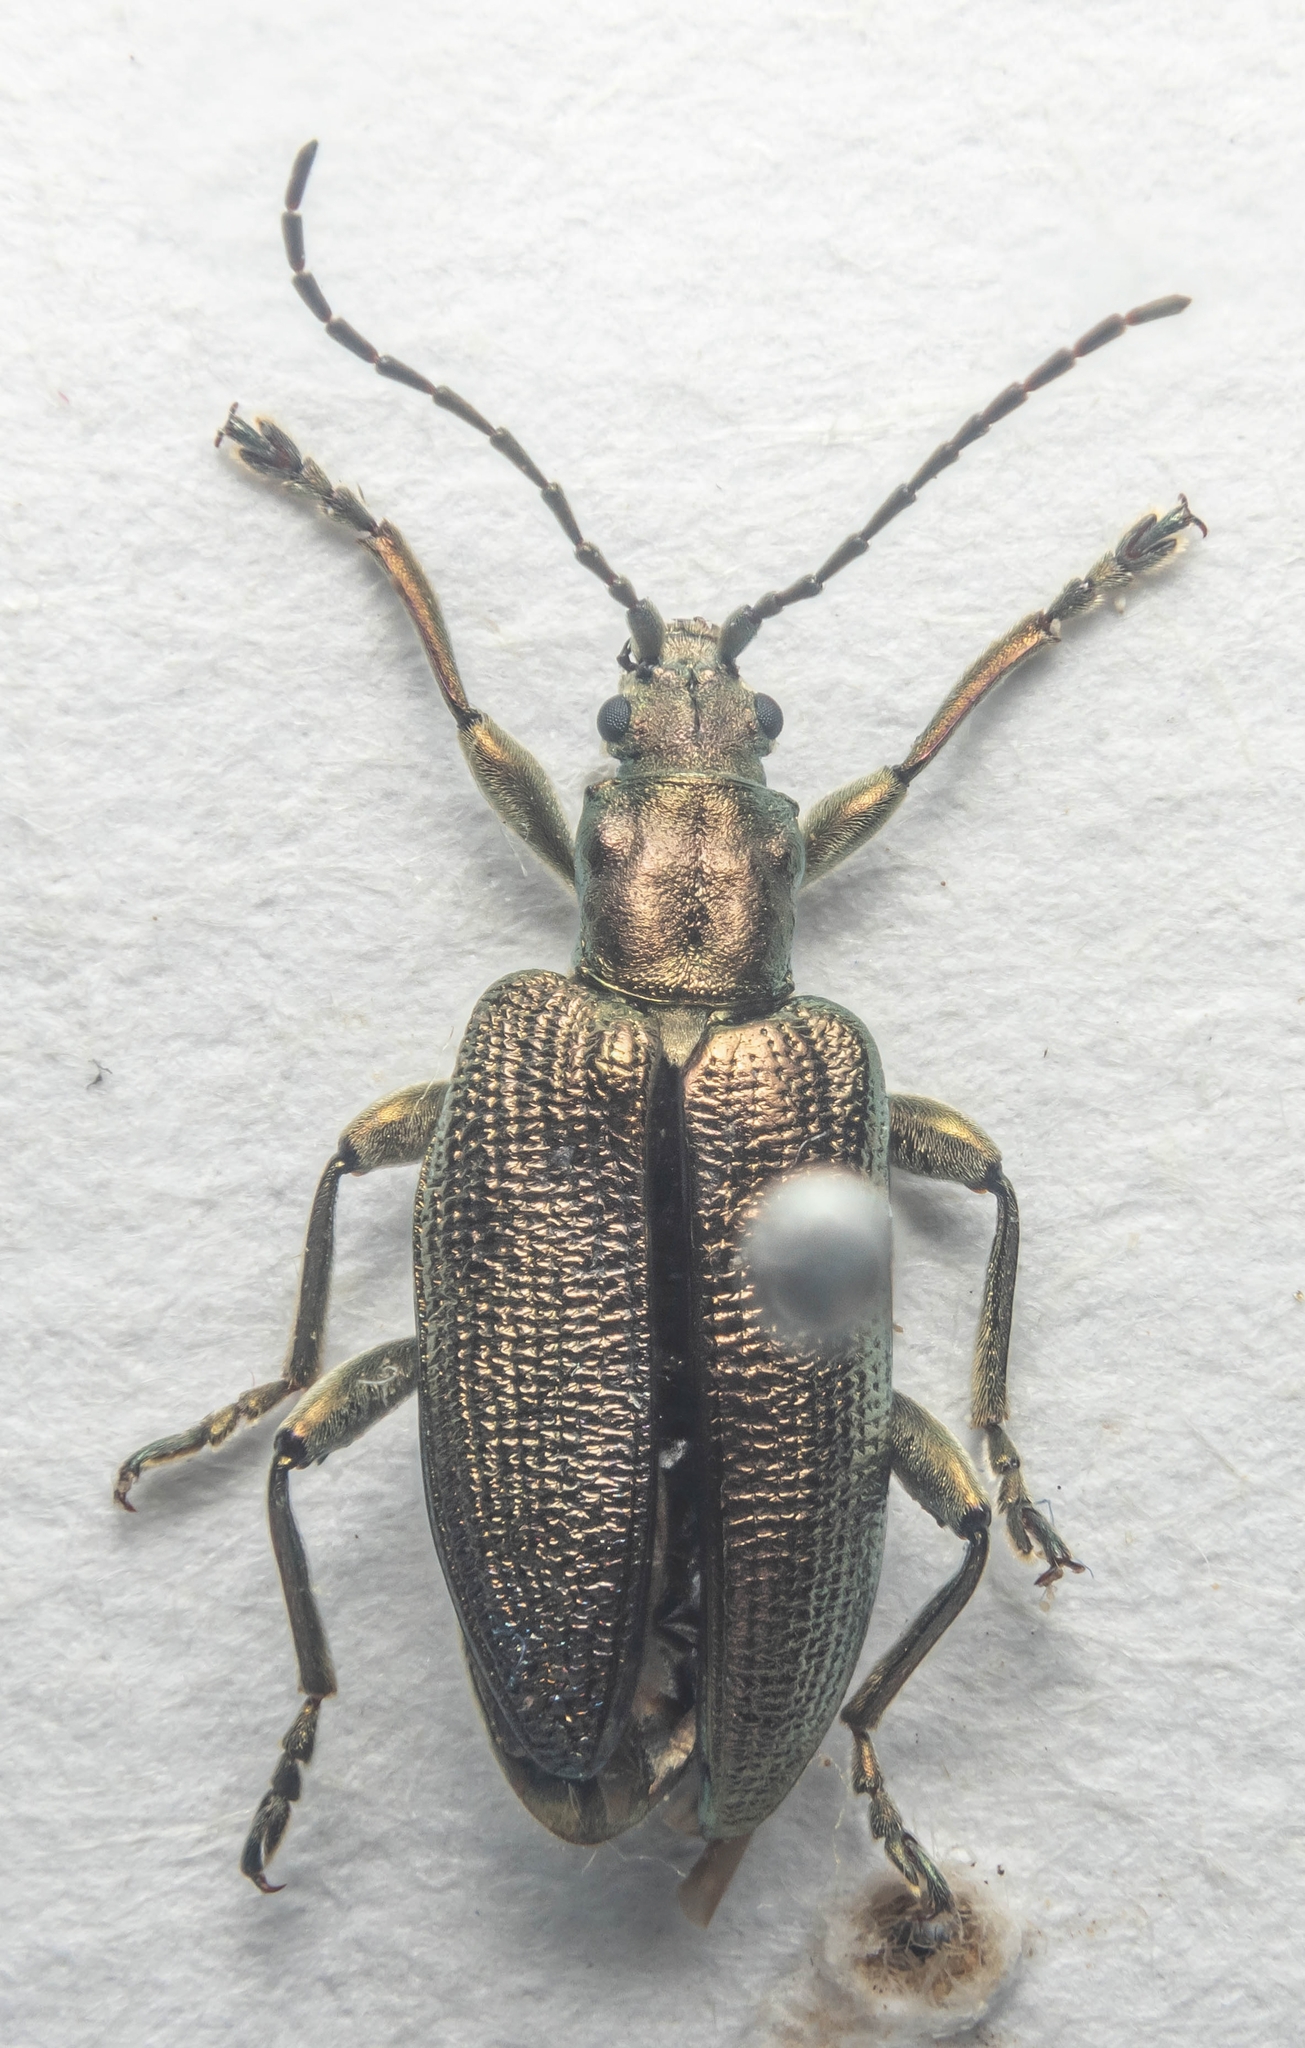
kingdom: Animalia
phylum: Arthropoda
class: Insecta
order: Coleoptera
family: Chrysomelidae
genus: Plateumaris
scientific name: Plateumaris sericea
